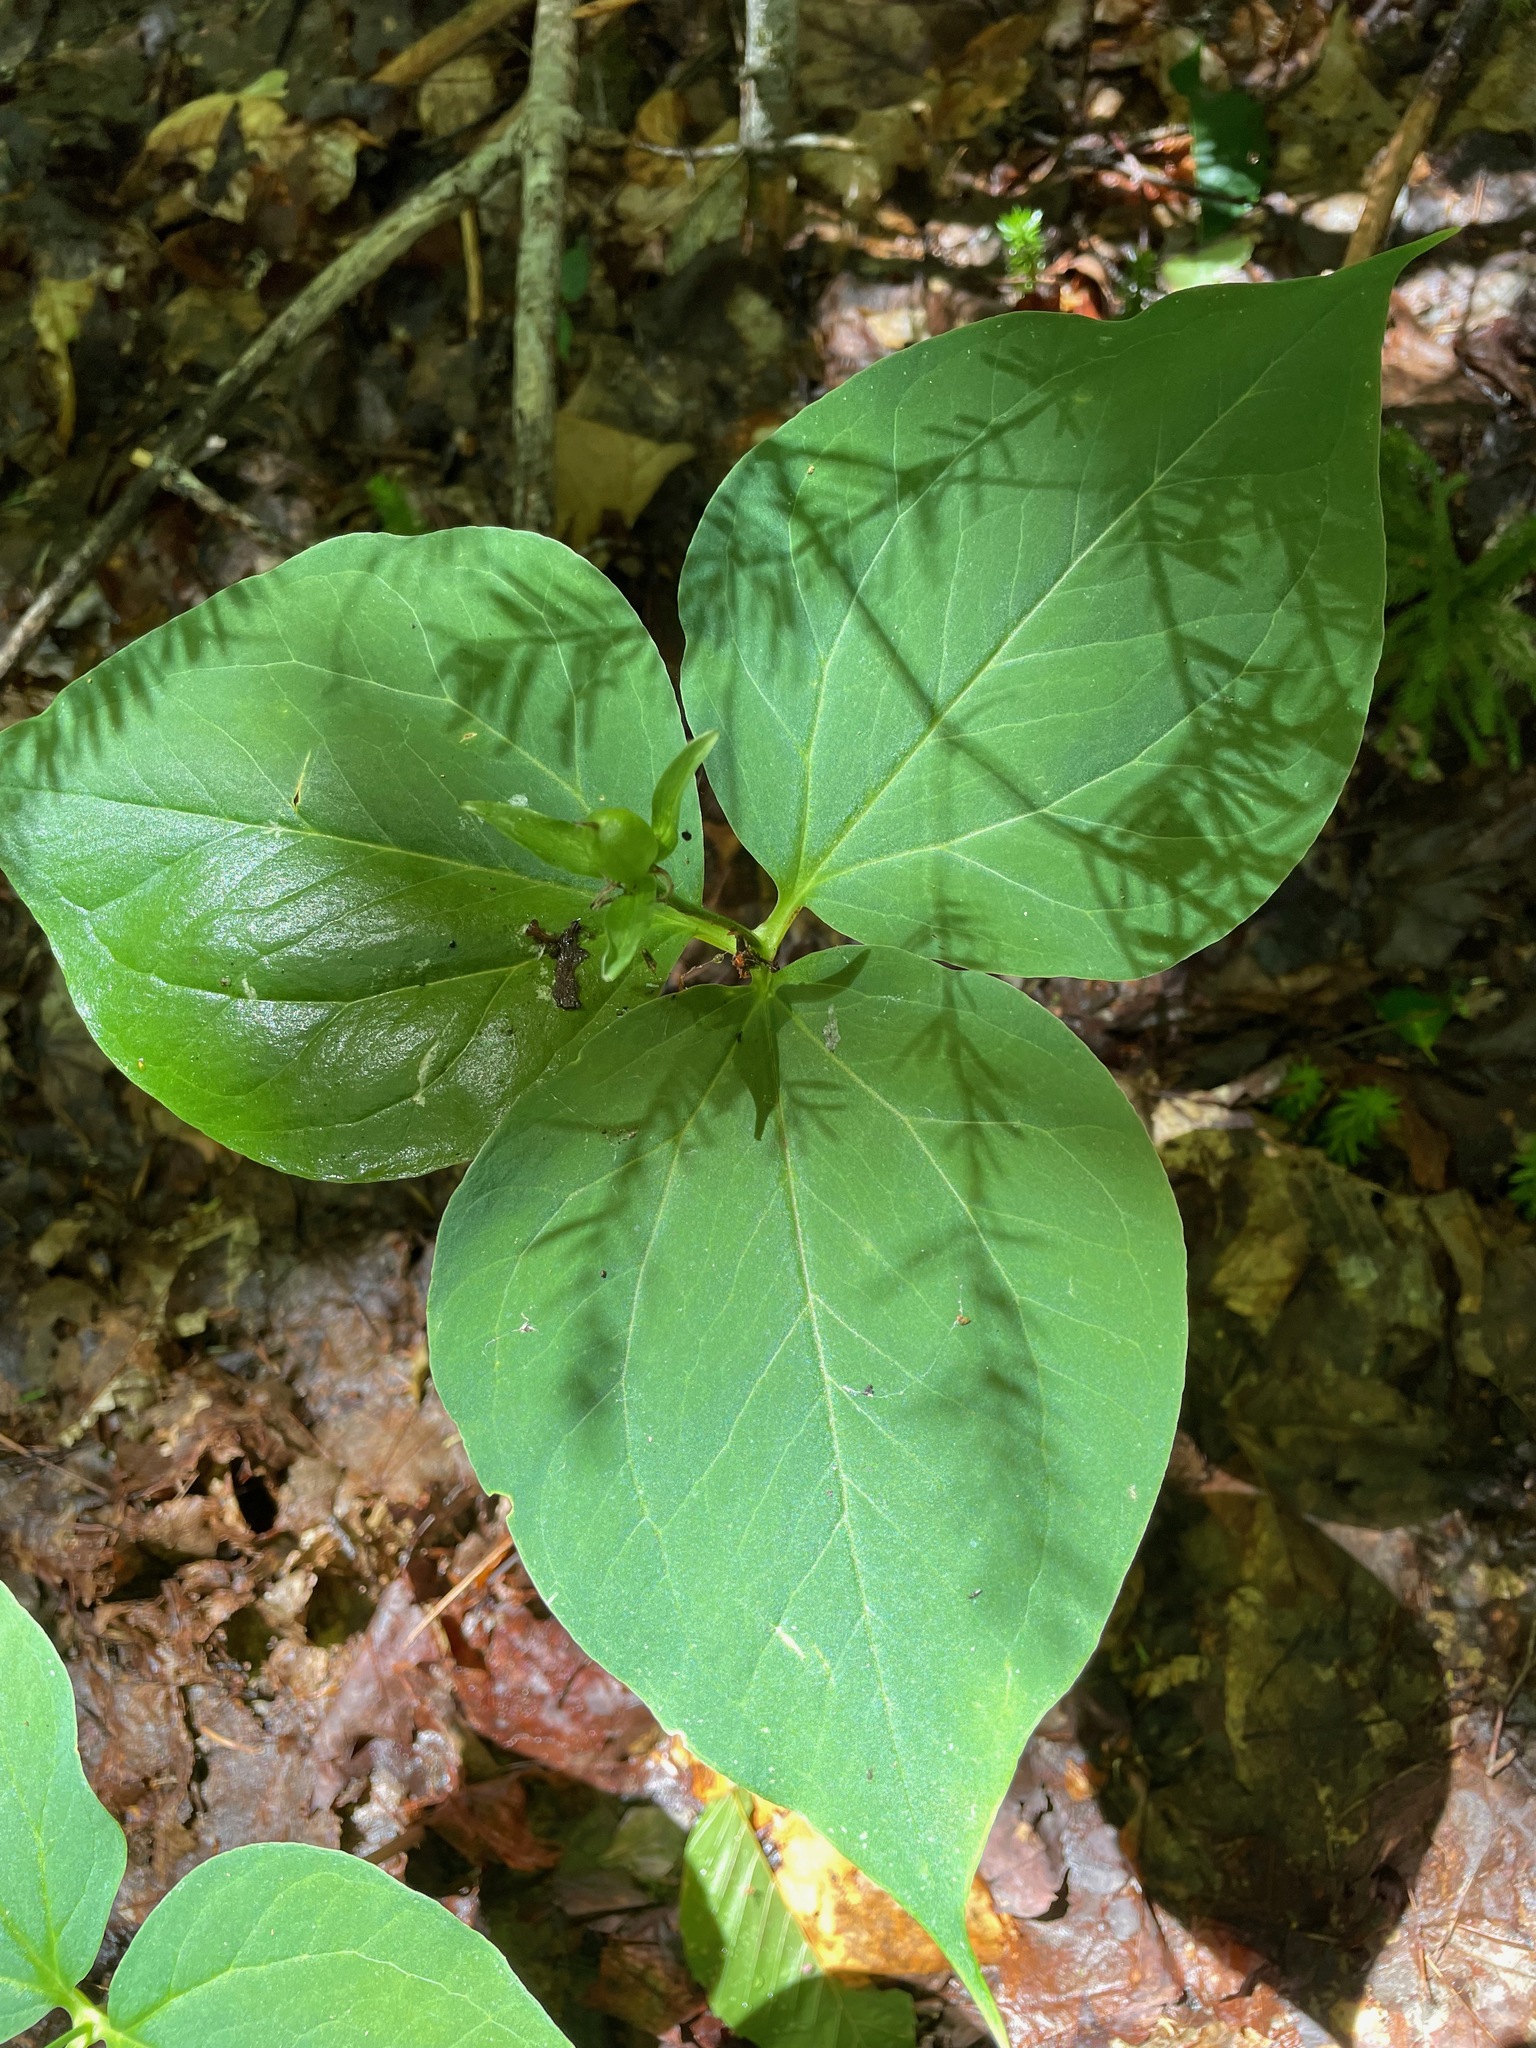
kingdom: Plantae
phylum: Tracheophyta
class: Liliopsida
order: Liliales
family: Melanthiaceae
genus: Trillium
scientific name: Trillium undulatum
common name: Paint trillium
